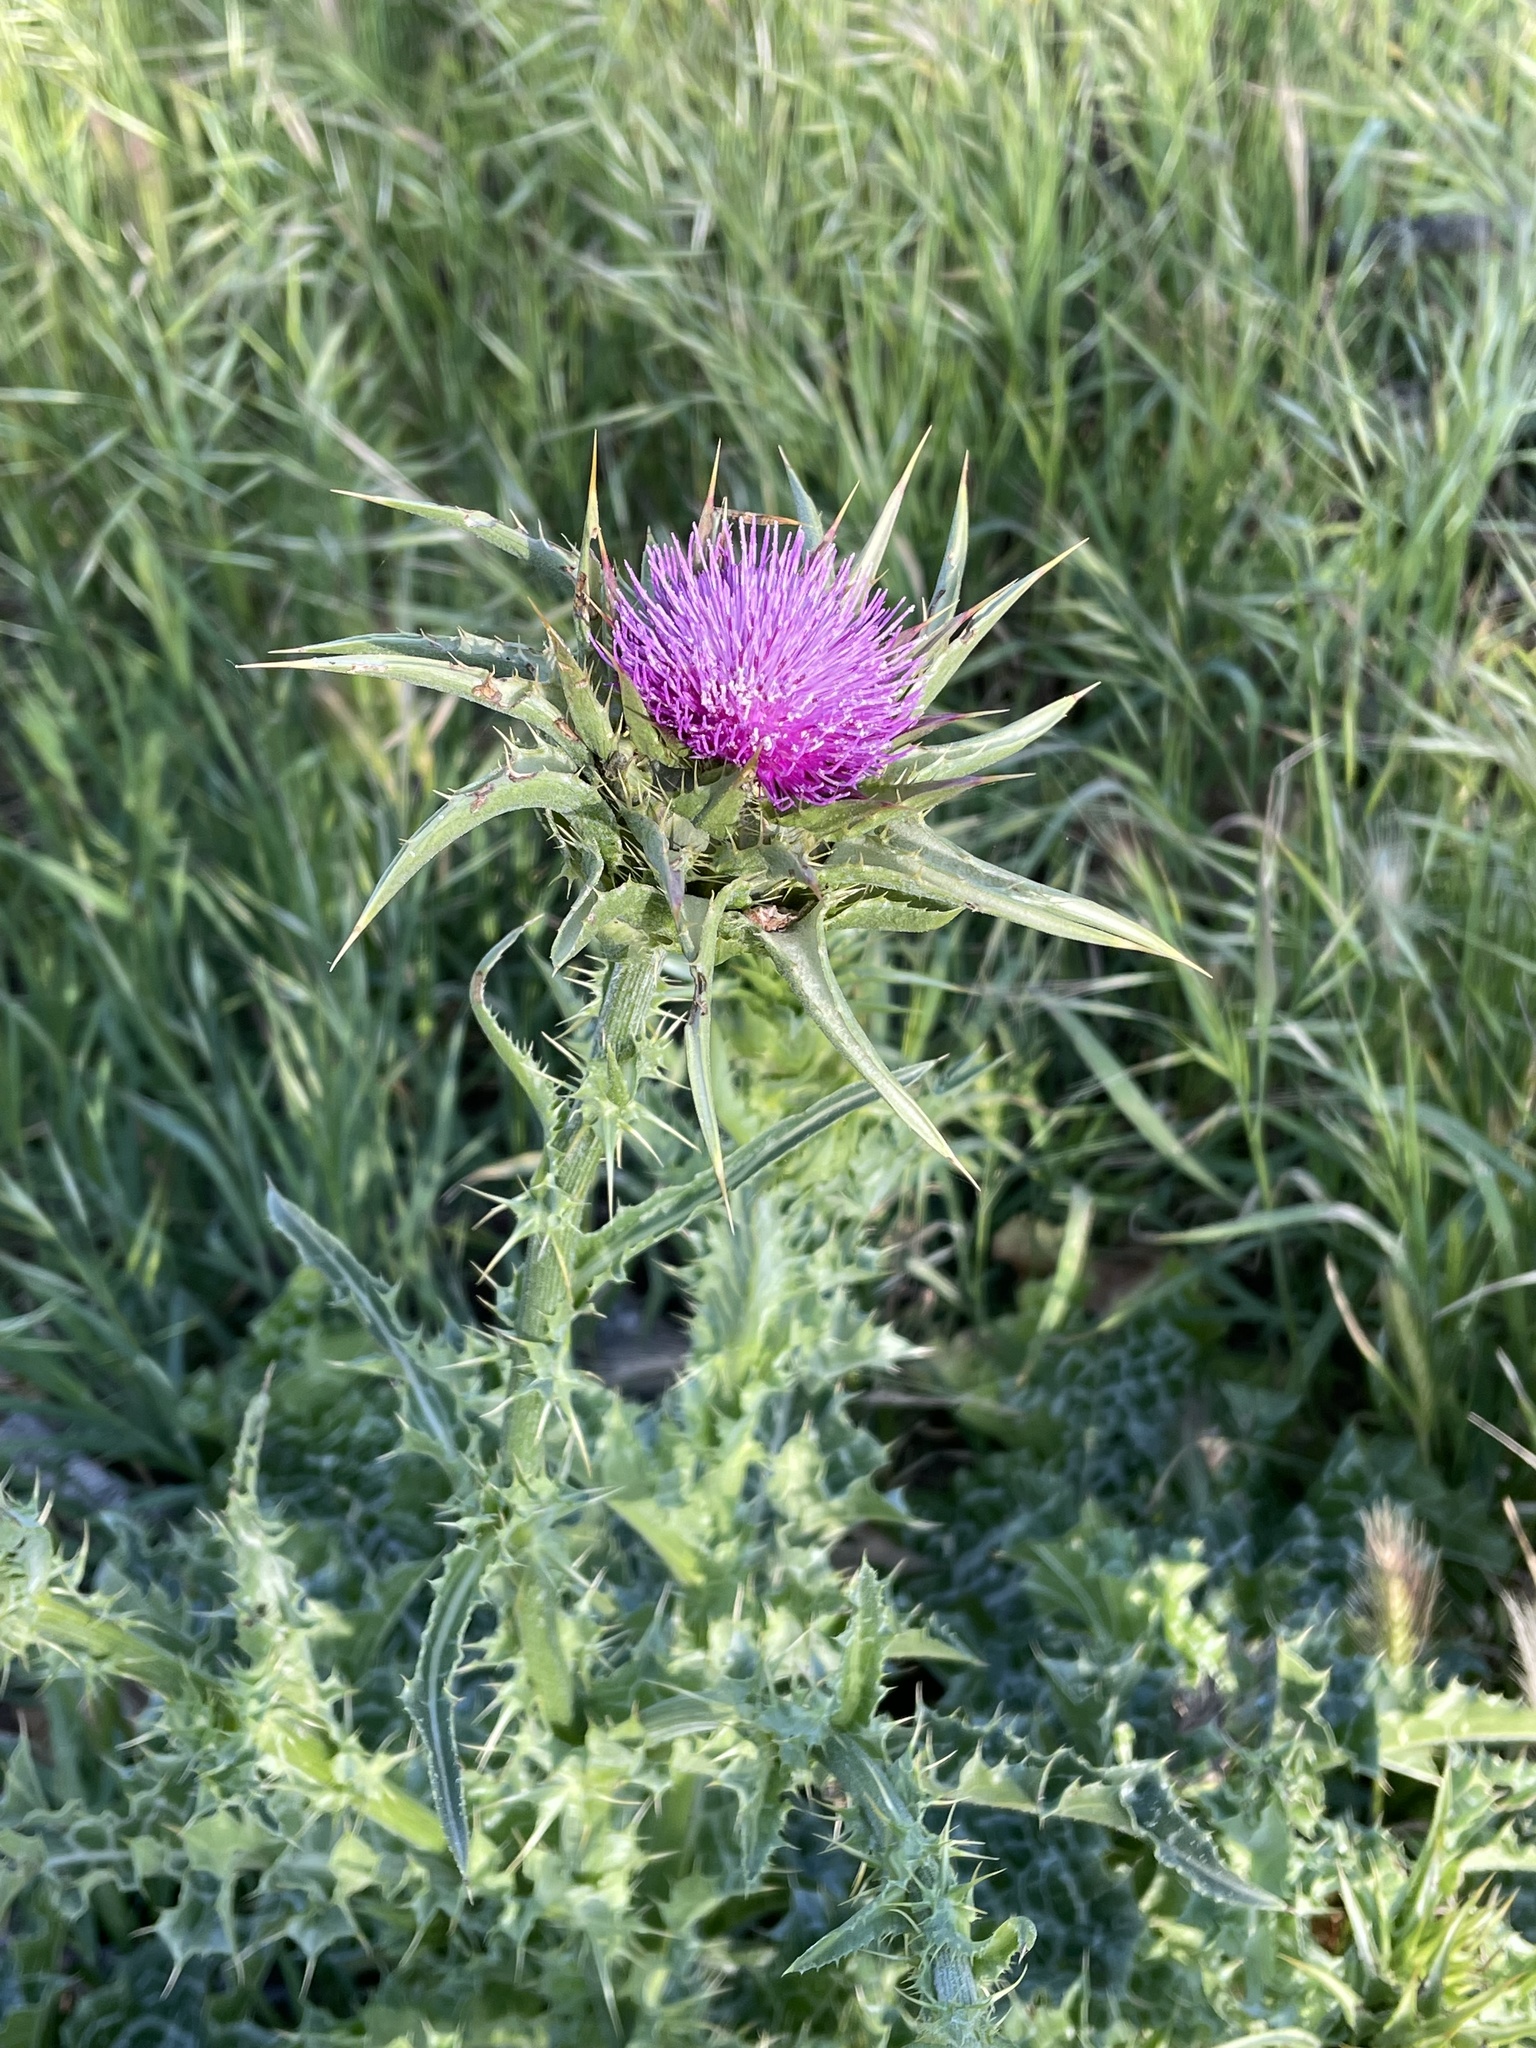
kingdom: Plantae
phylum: Tracheophyta
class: Magnoliopsida
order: Asterales
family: Asteraceae
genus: Silybum
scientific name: Silybum marianum
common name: Milk thistle
